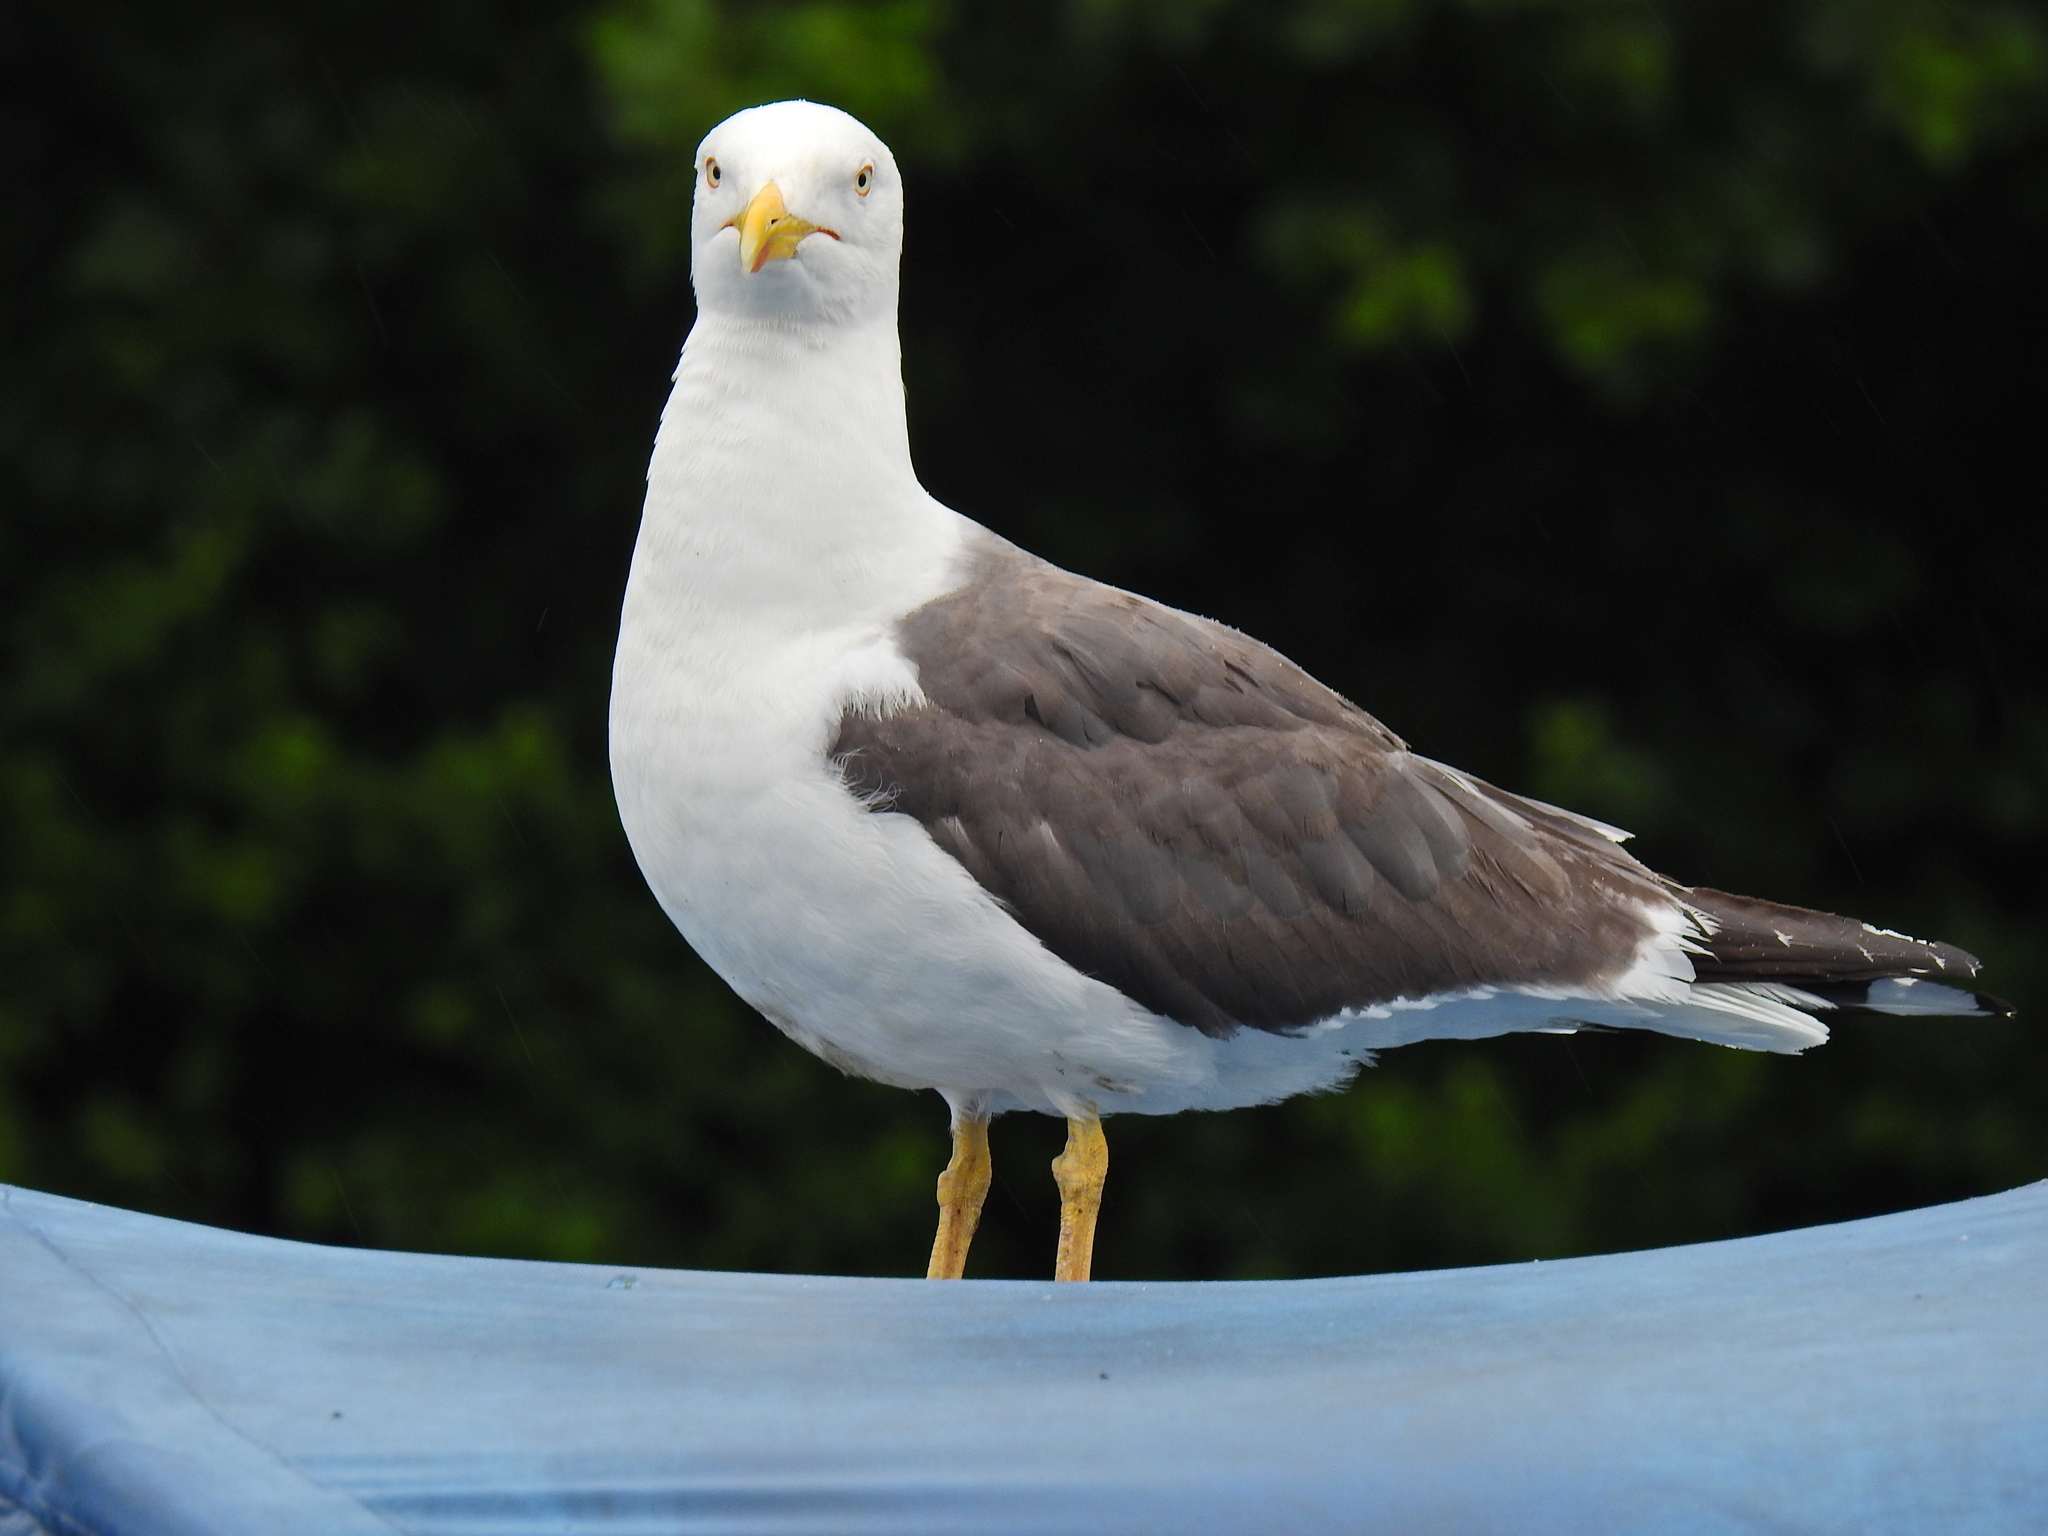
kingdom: Animalia
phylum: Chordata
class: Aves
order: Charadriiformes
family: Laridae
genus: Larus
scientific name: Larus fuscus
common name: Lesser black-backed gull
